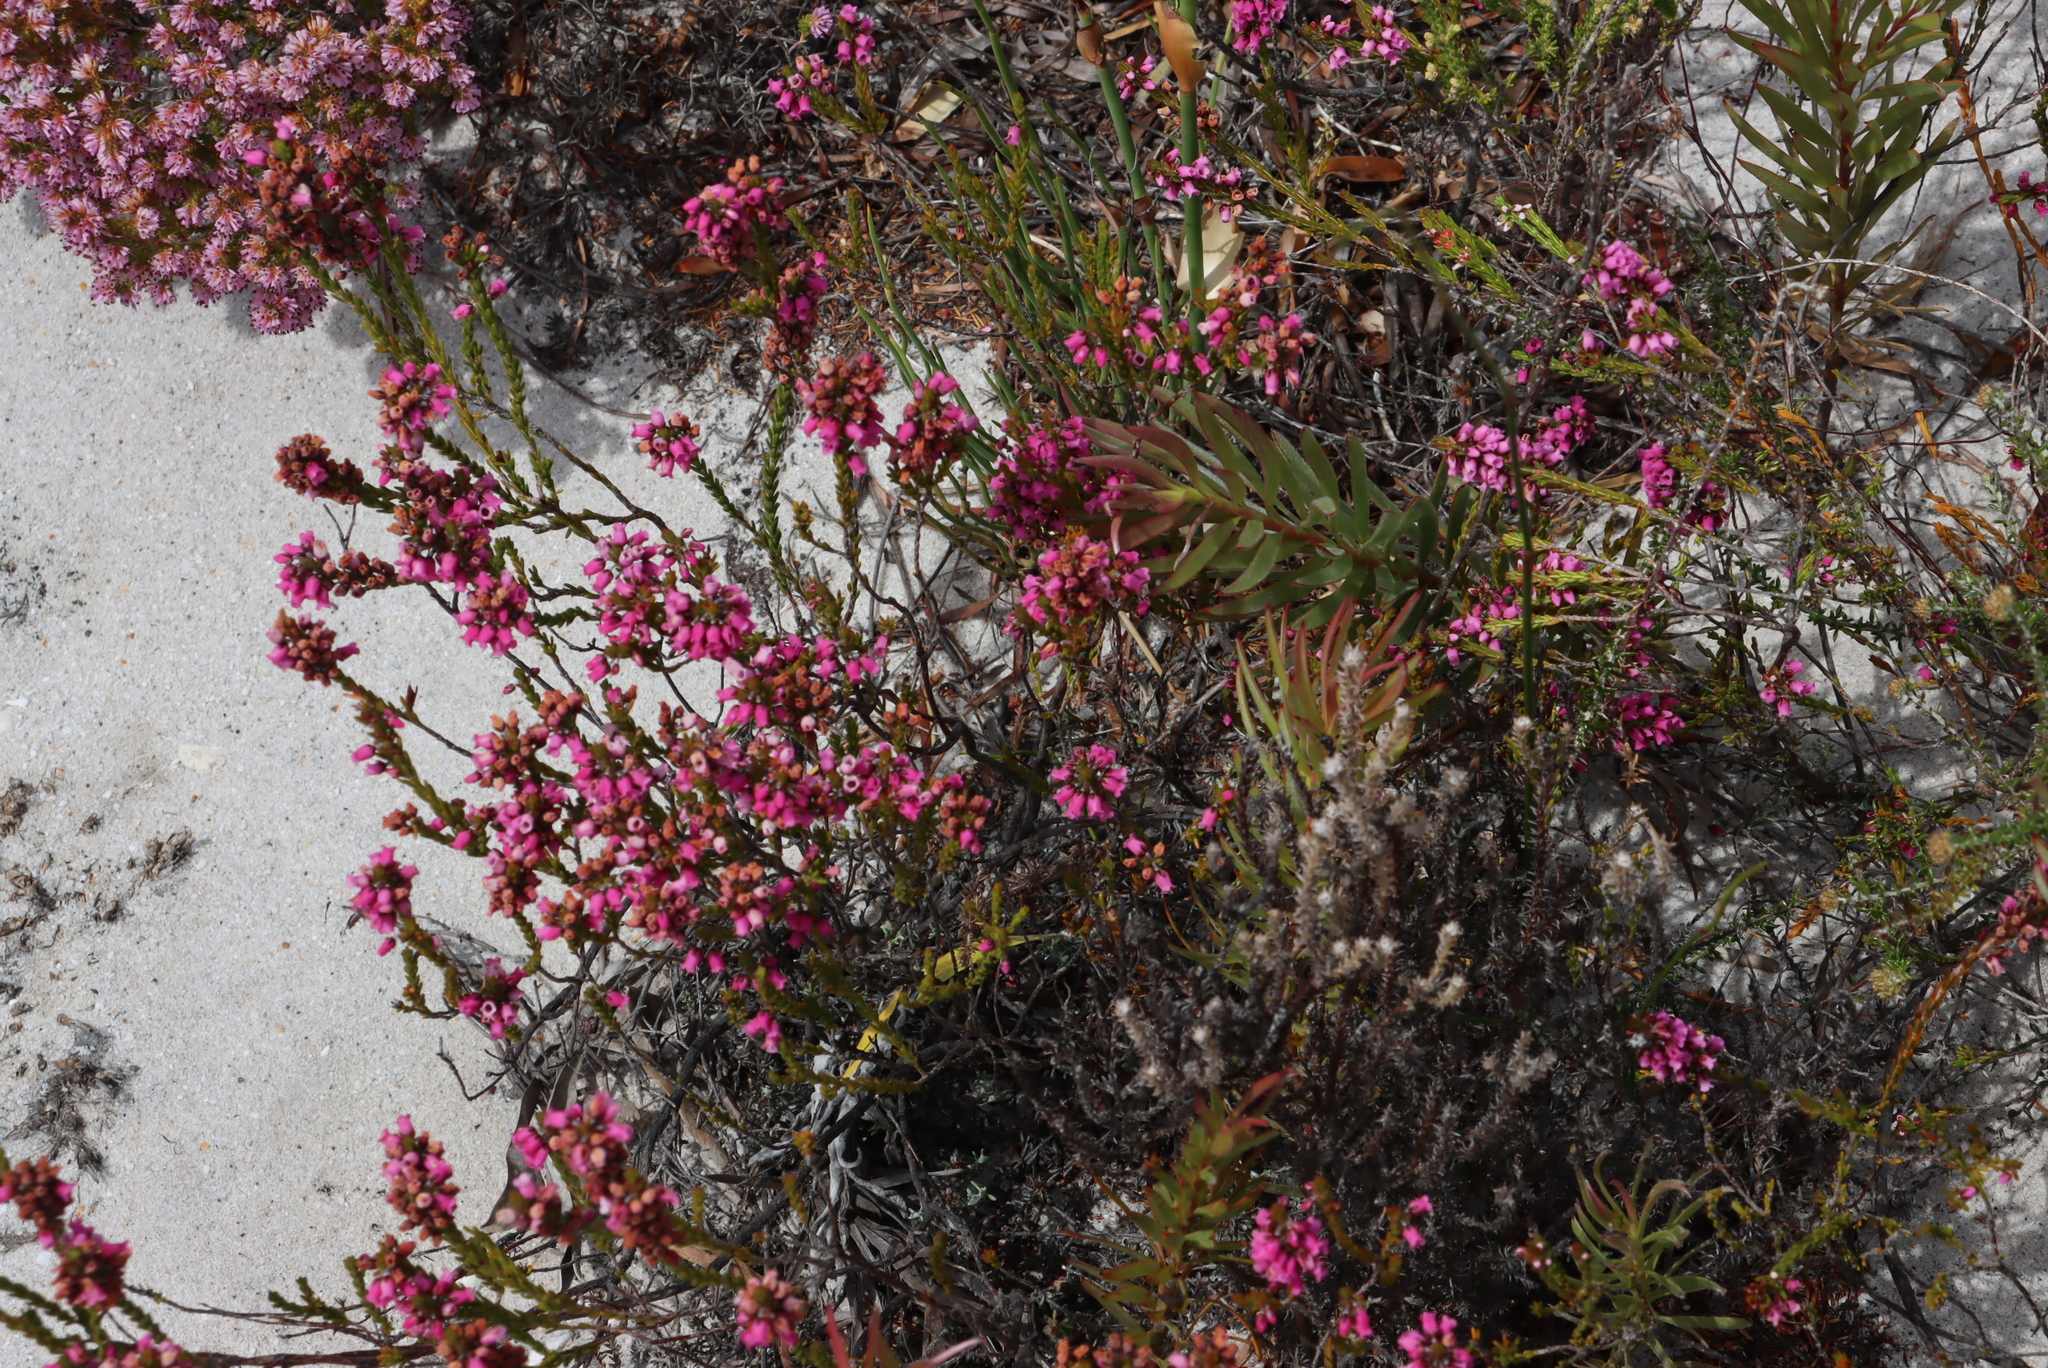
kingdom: Plantae
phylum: Tracheophyta
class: Magnoliopsida
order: Ericales
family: Ericaceae
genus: Erica
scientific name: Erica pulchella
